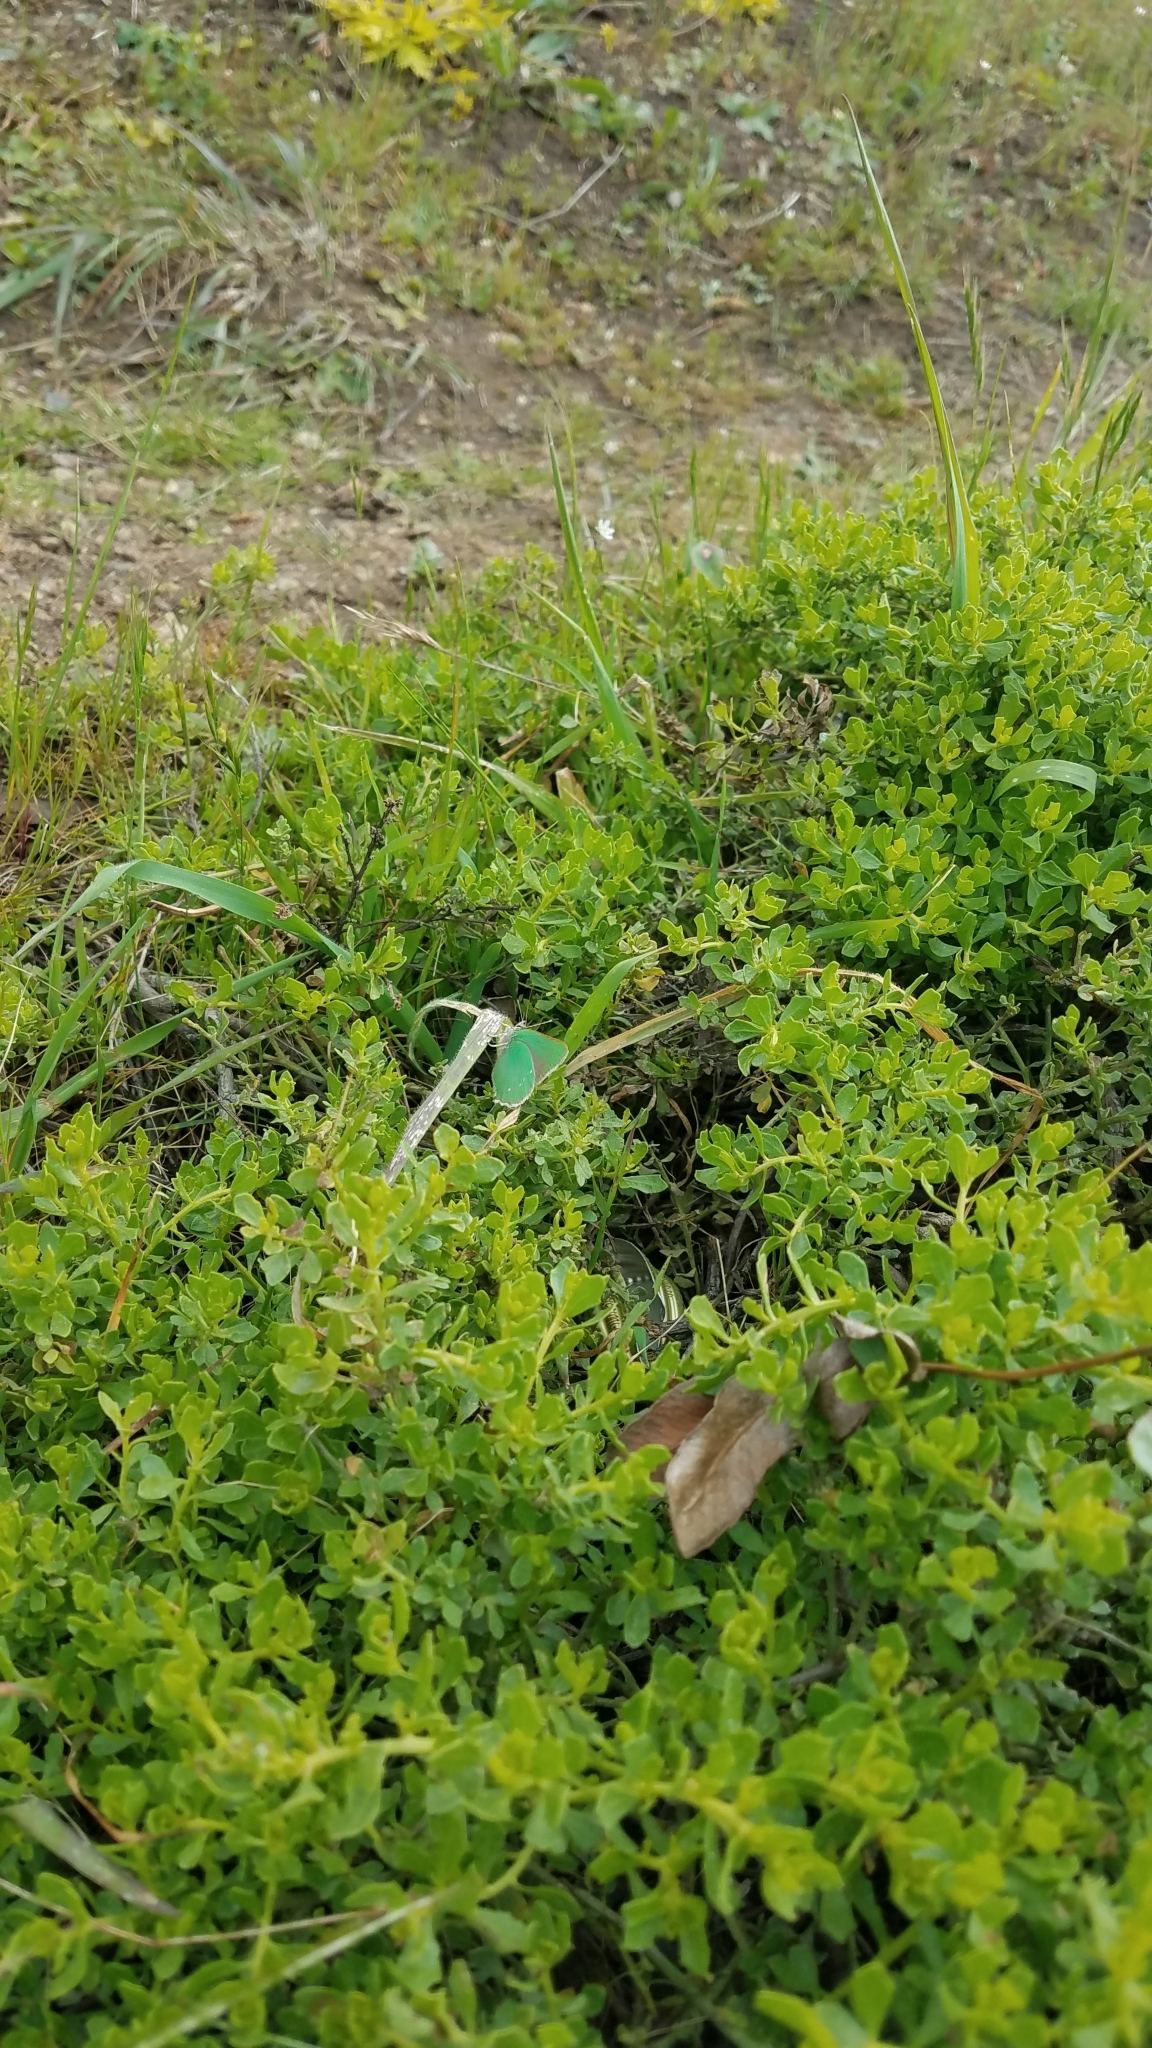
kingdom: Animalia
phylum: Arthropoda
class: Insecta
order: Lepidoptera
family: Lycaenidae
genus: Callophrys
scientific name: Callophrys viridis
